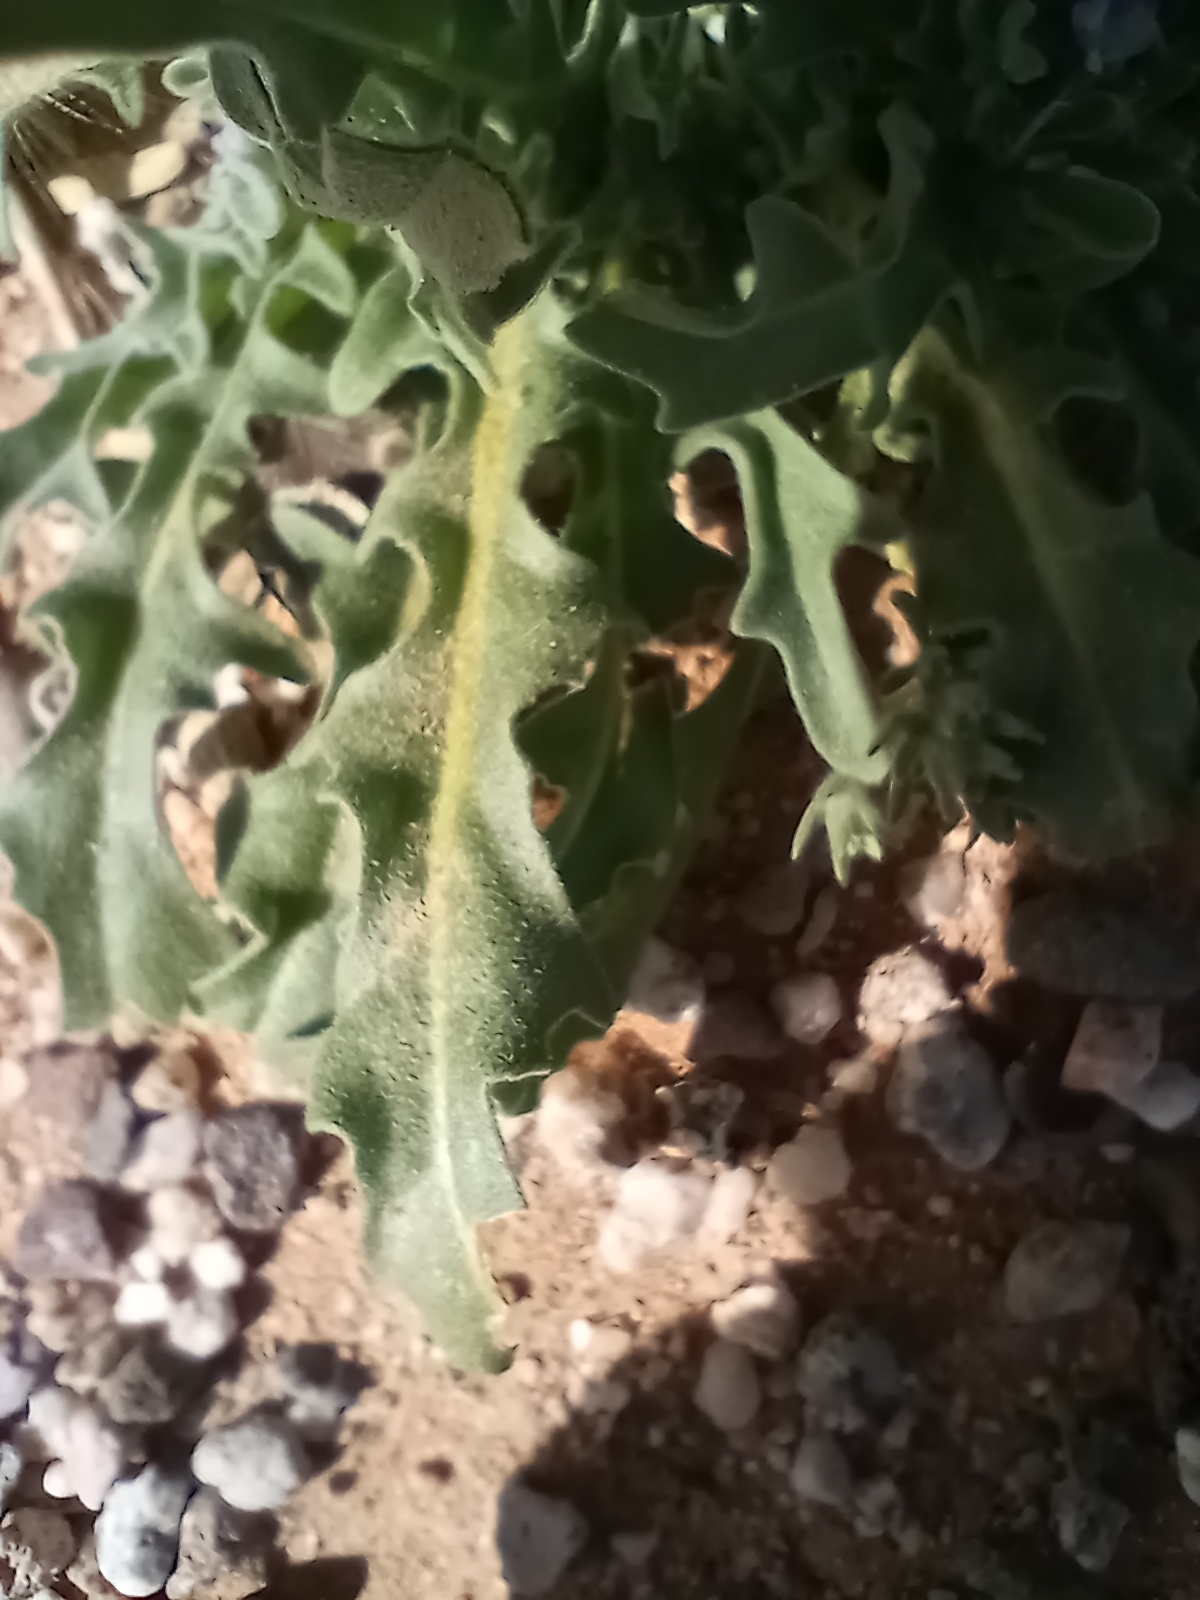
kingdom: Plantae
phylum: Tracheophyta
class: Magnoliopsida
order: Brassicales
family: Brassicaceae
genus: Matthiola
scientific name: Matthiola parviflora
